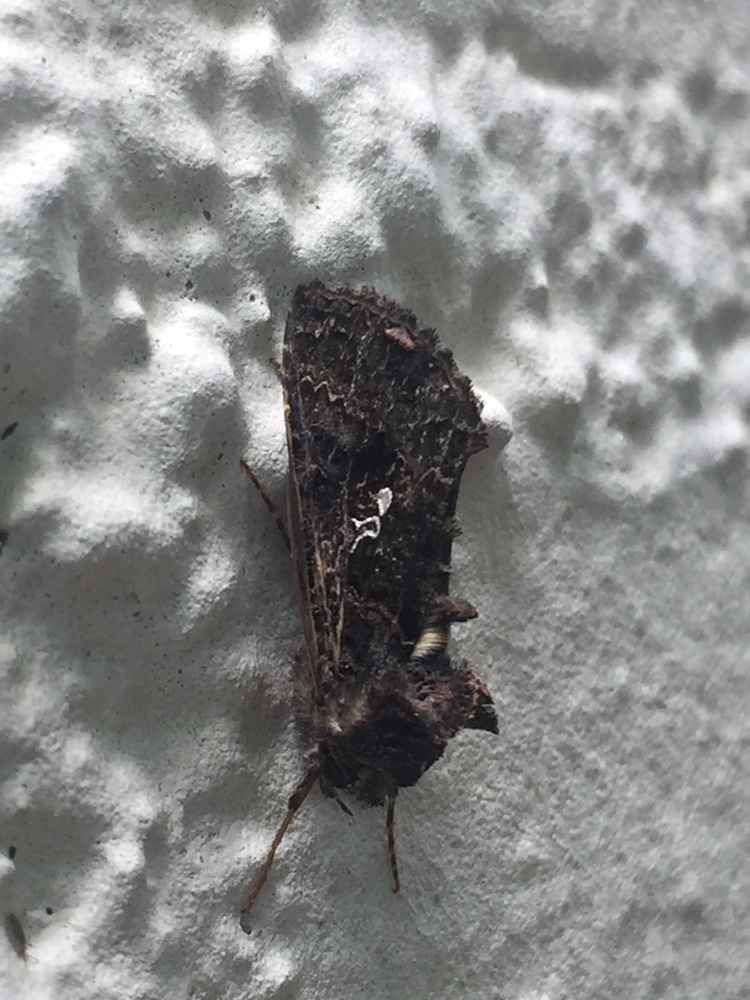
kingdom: Animalia
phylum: Arthropoda
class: Insecta
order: Lepidoptera
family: Noctuidae
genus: Ctenoplusia
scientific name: Ctenoplusia limbirena
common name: Scar bank gem
